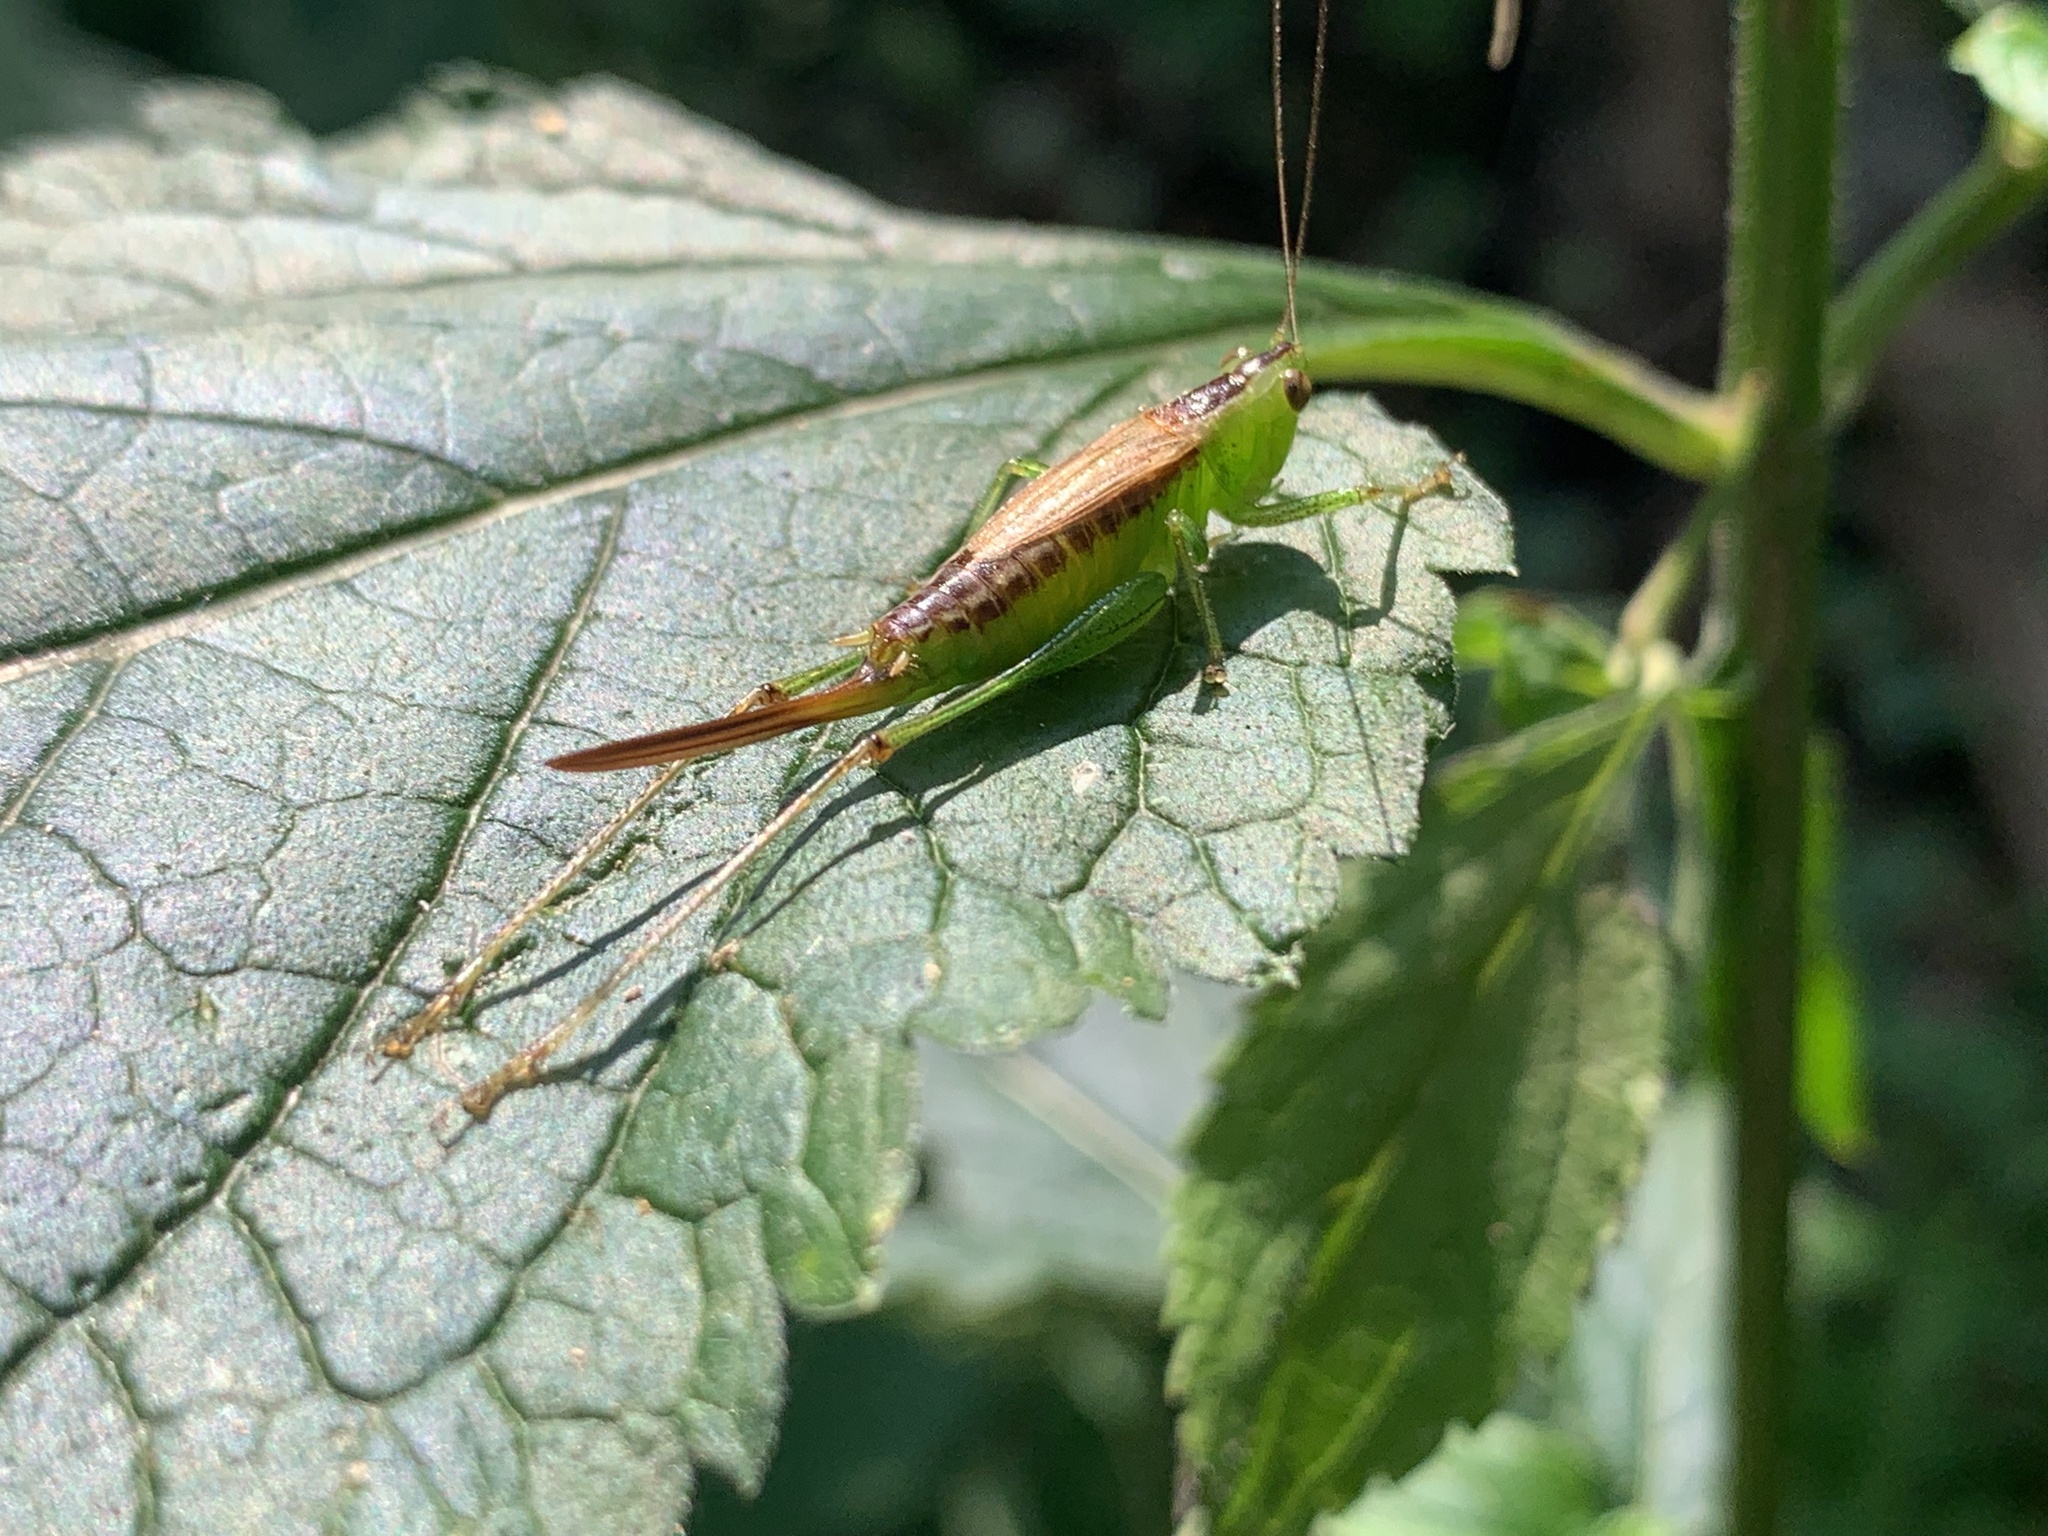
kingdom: Animalia
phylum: Arthropoda
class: Insecta
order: Orthoptera
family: Tettigoniidae
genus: Conocephalus
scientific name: Conocephalus brevipennis
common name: Short-winged meadow katydid
